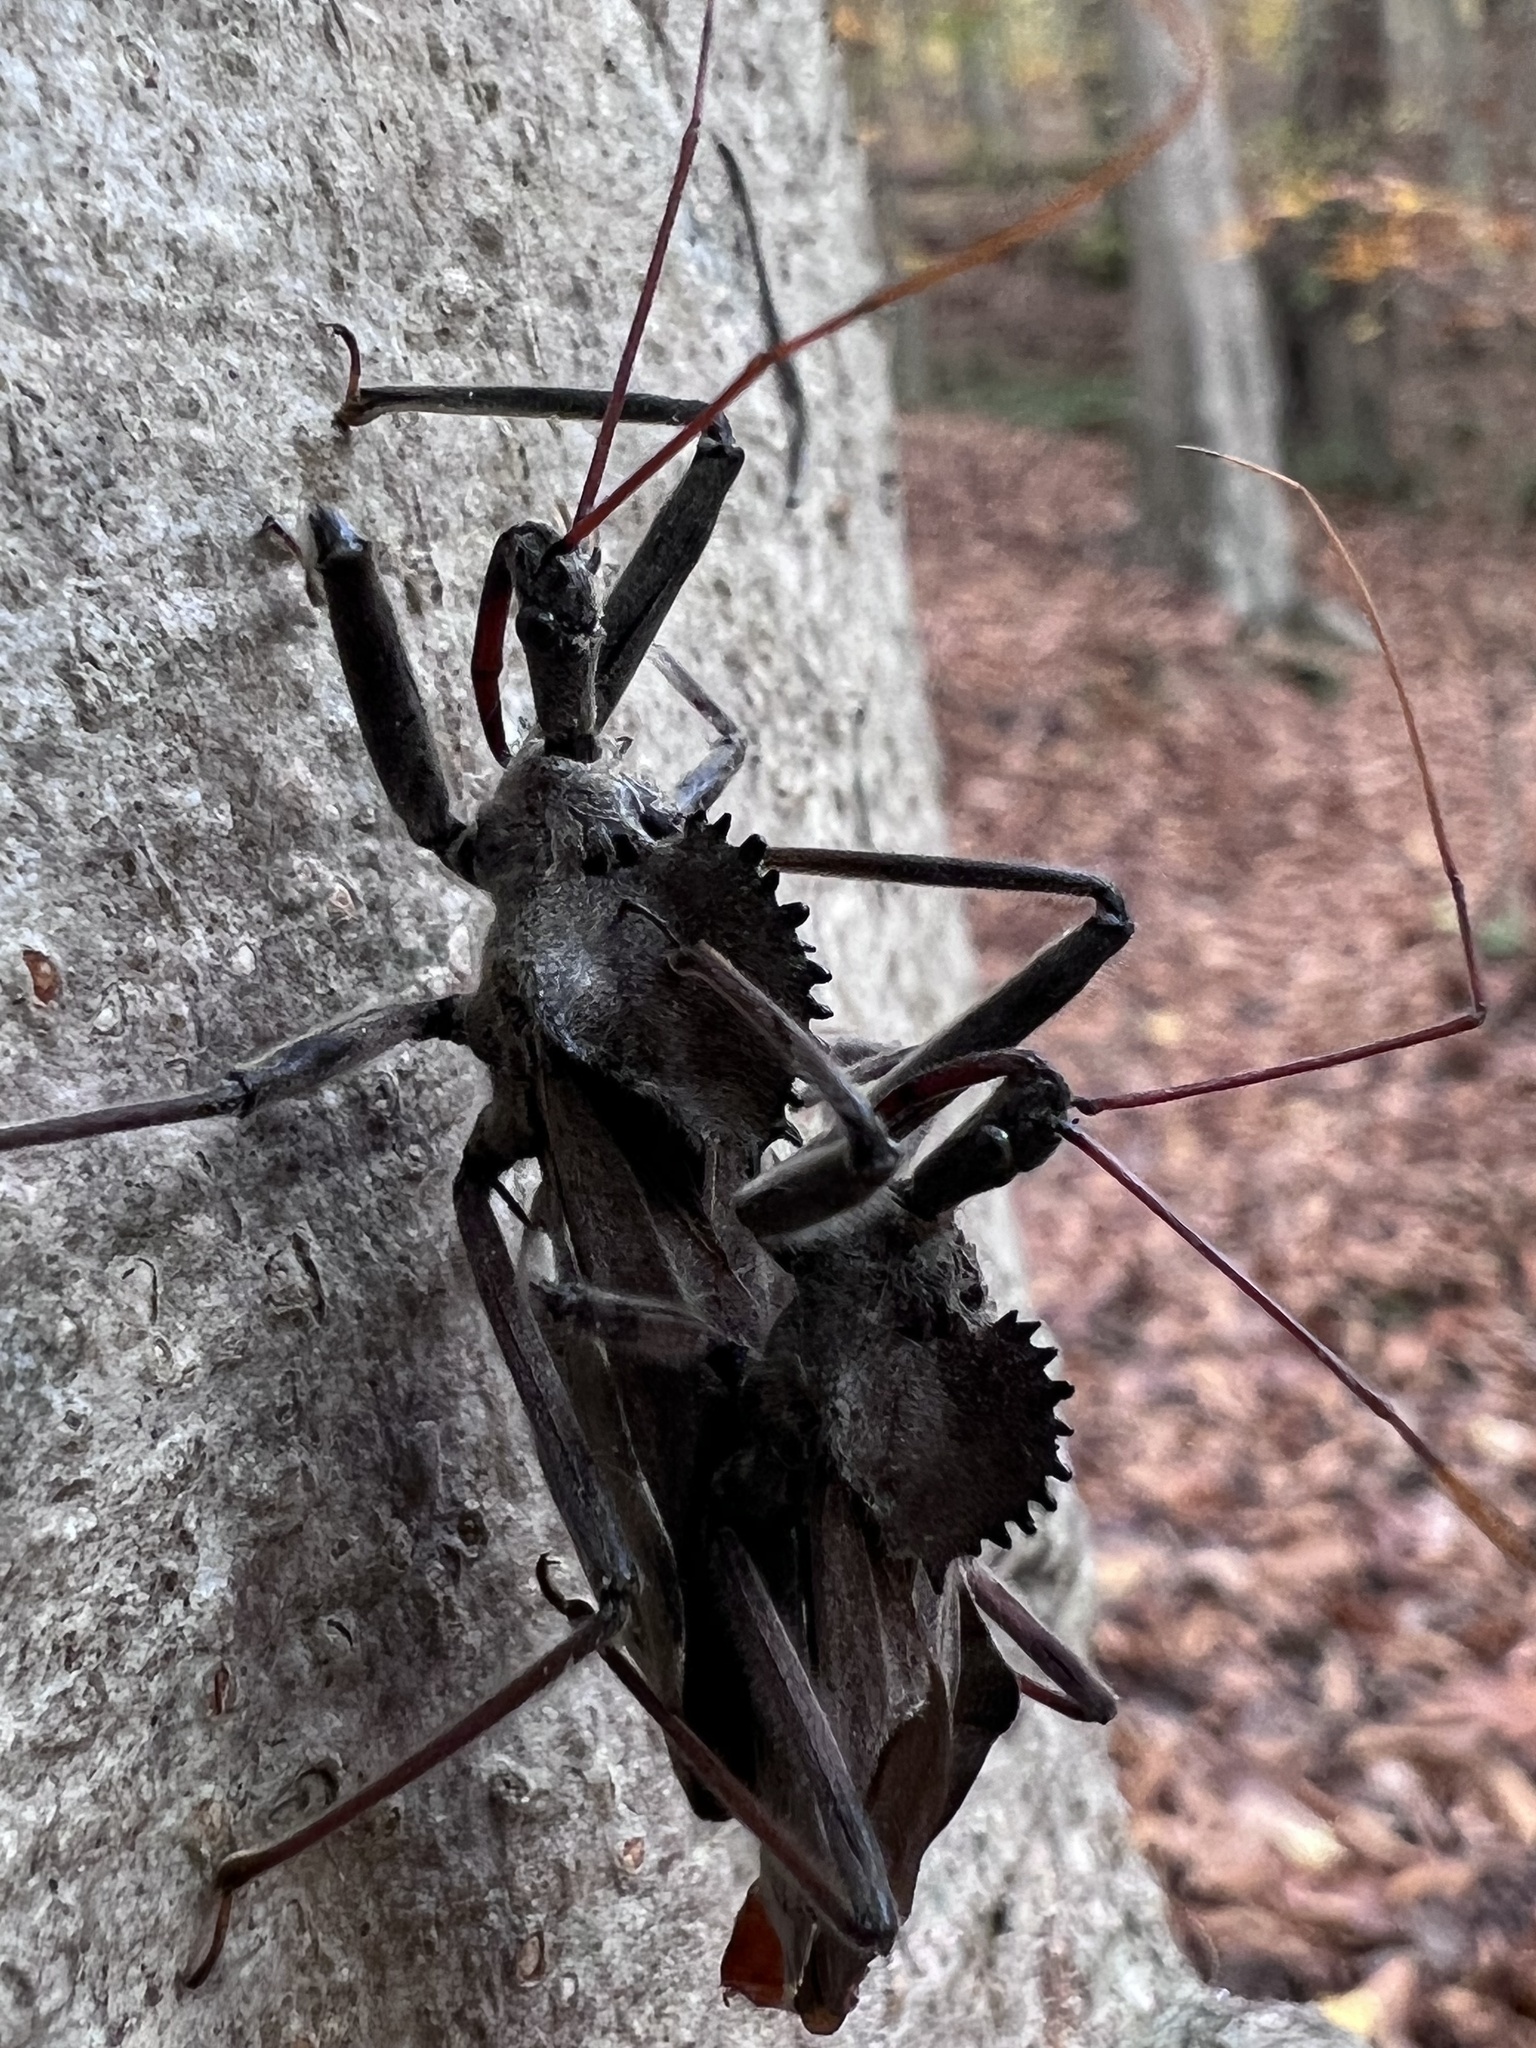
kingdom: Animalia
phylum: Arthropoda
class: Insecta
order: Hemiptera
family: Reduviidae
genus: Arilus
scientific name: Arilus cristatus
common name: North american wheel bug
